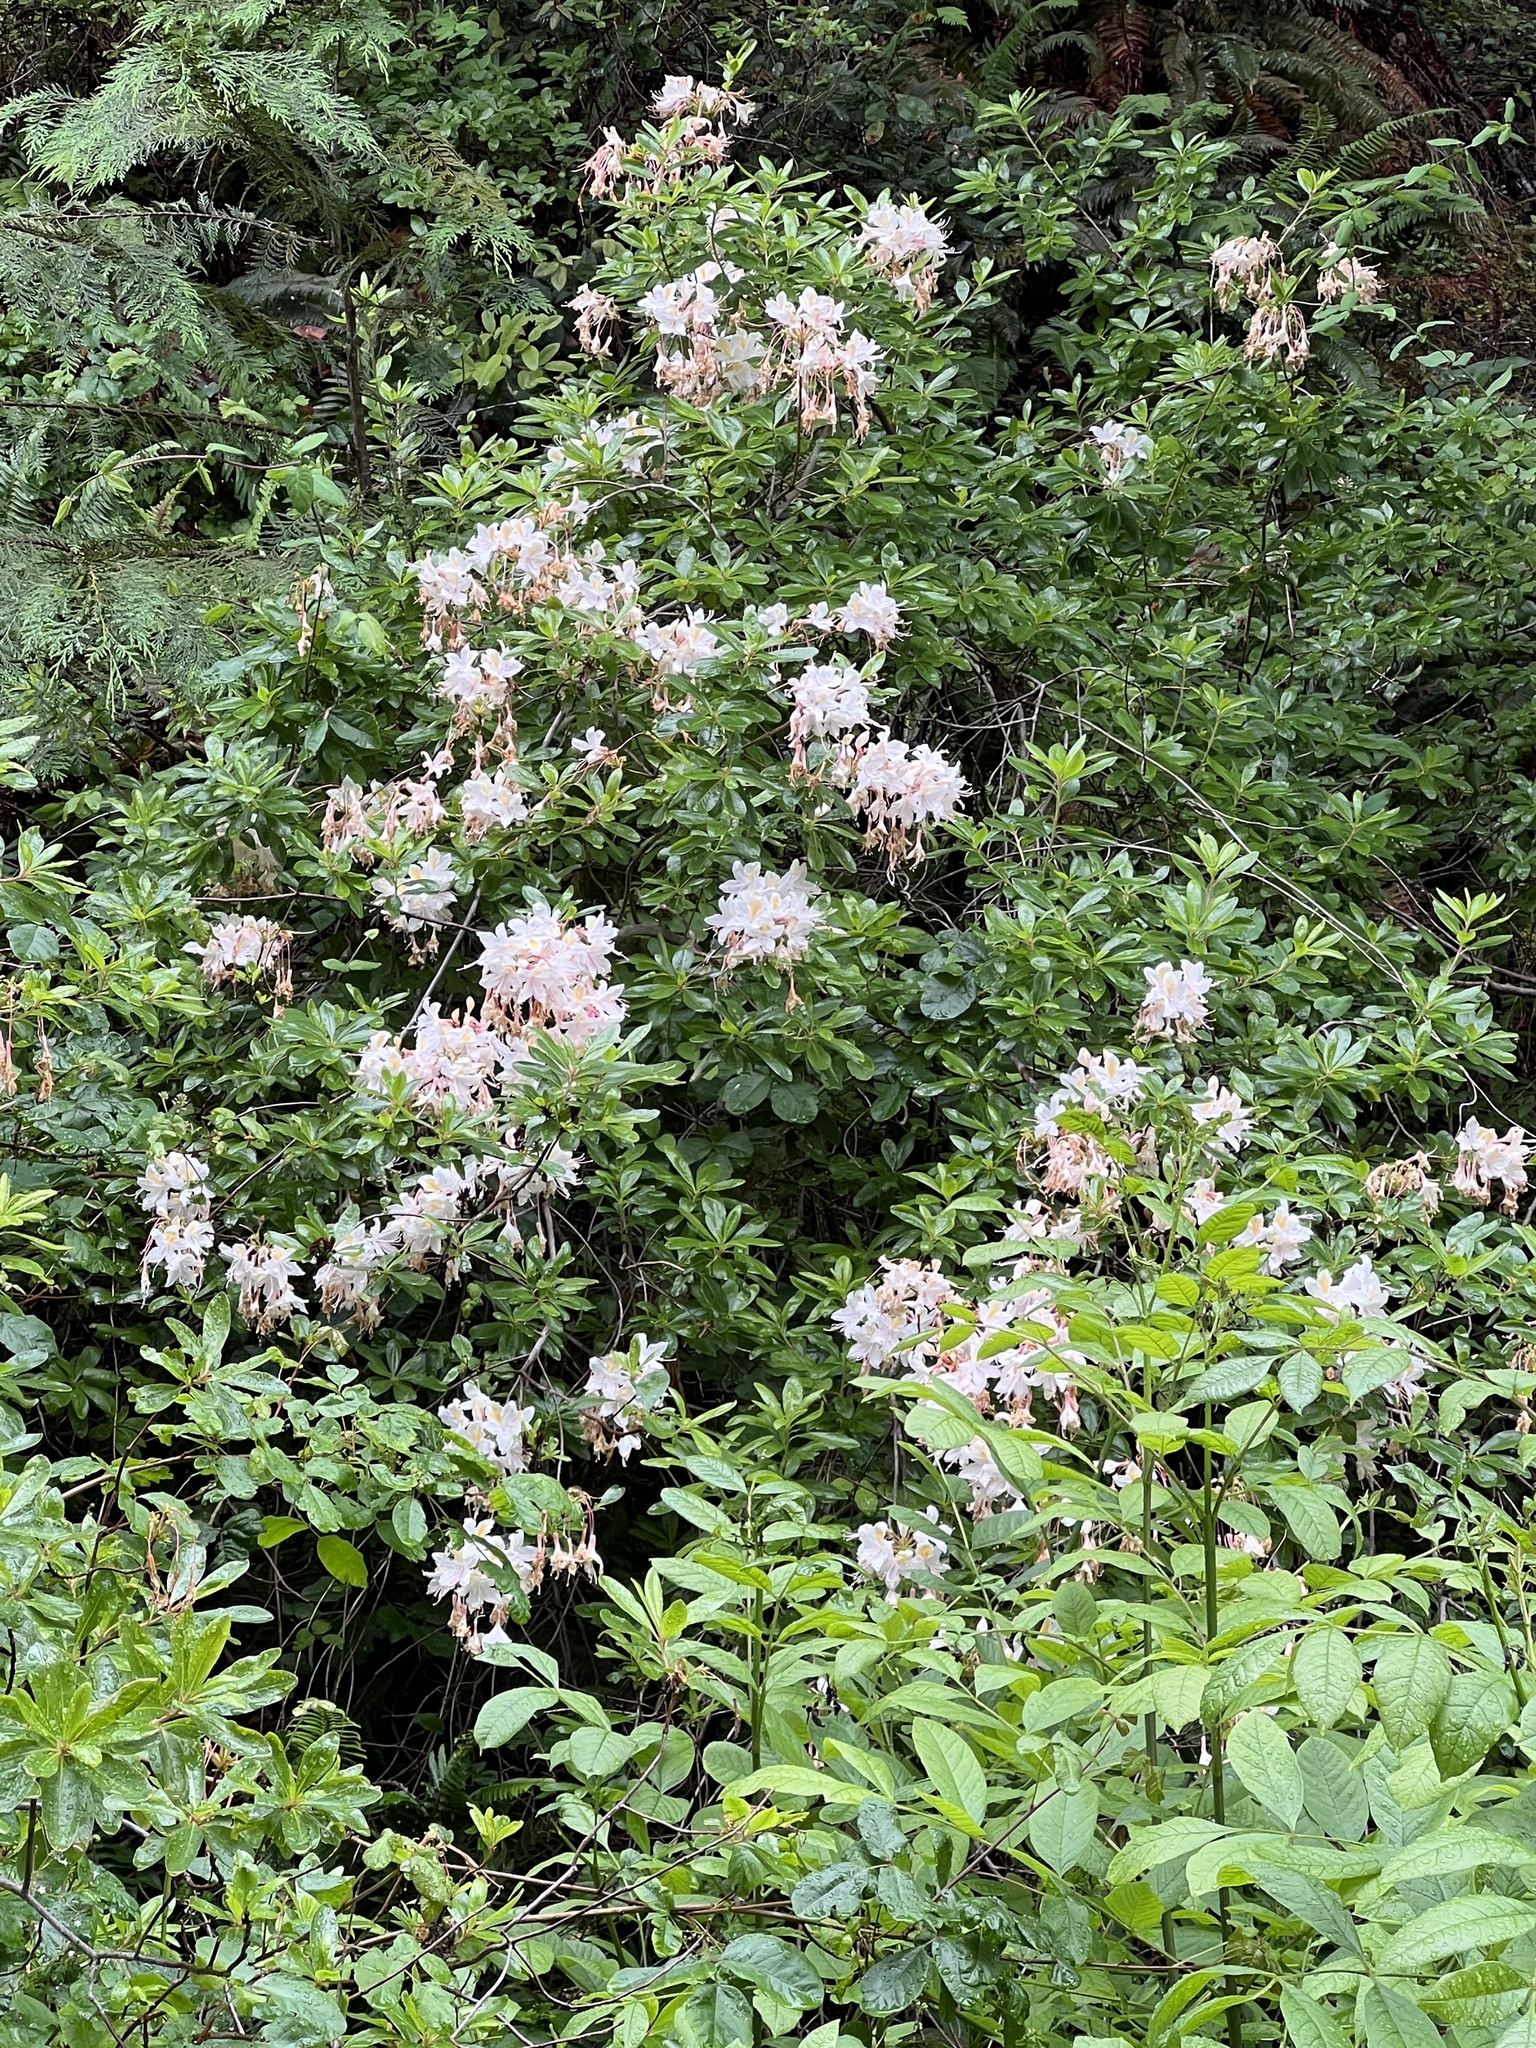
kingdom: Plantae
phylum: Tracheophyta
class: Magnoliopsida
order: Ericales
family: Ericaceae
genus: Rhododendron
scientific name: Rhododendron occidentale
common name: Western azalea
